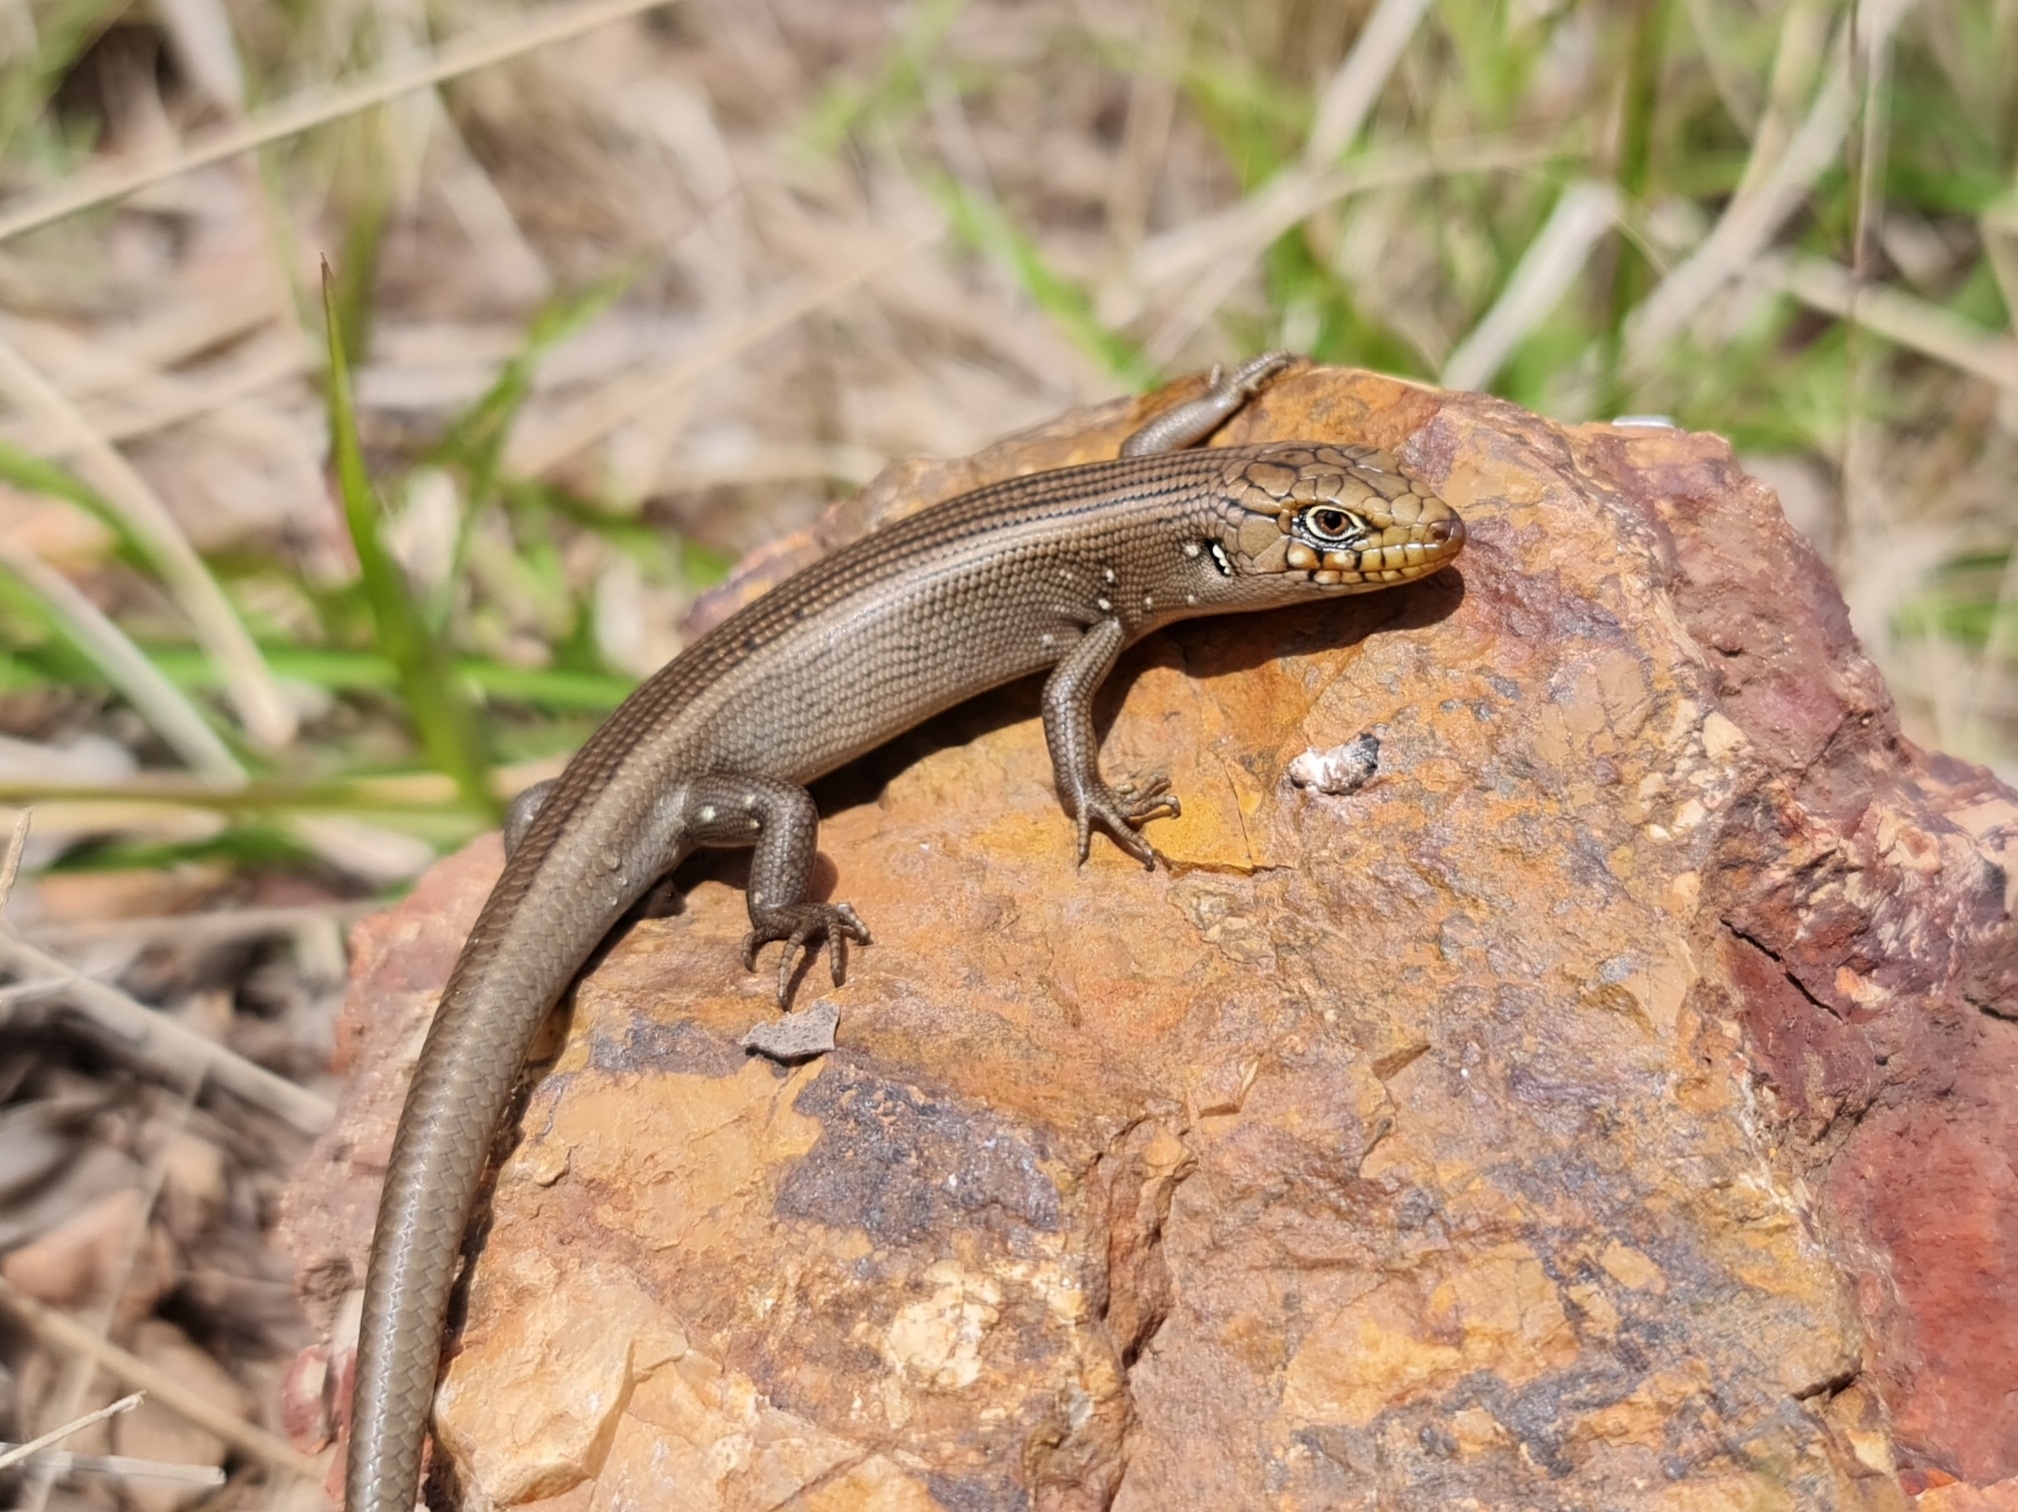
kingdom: Animalia
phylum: Chordata
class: Squamata
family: Scincidae
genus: Liopholis
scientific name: Liopholis modesta
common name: Eastern ranges rock-skink
